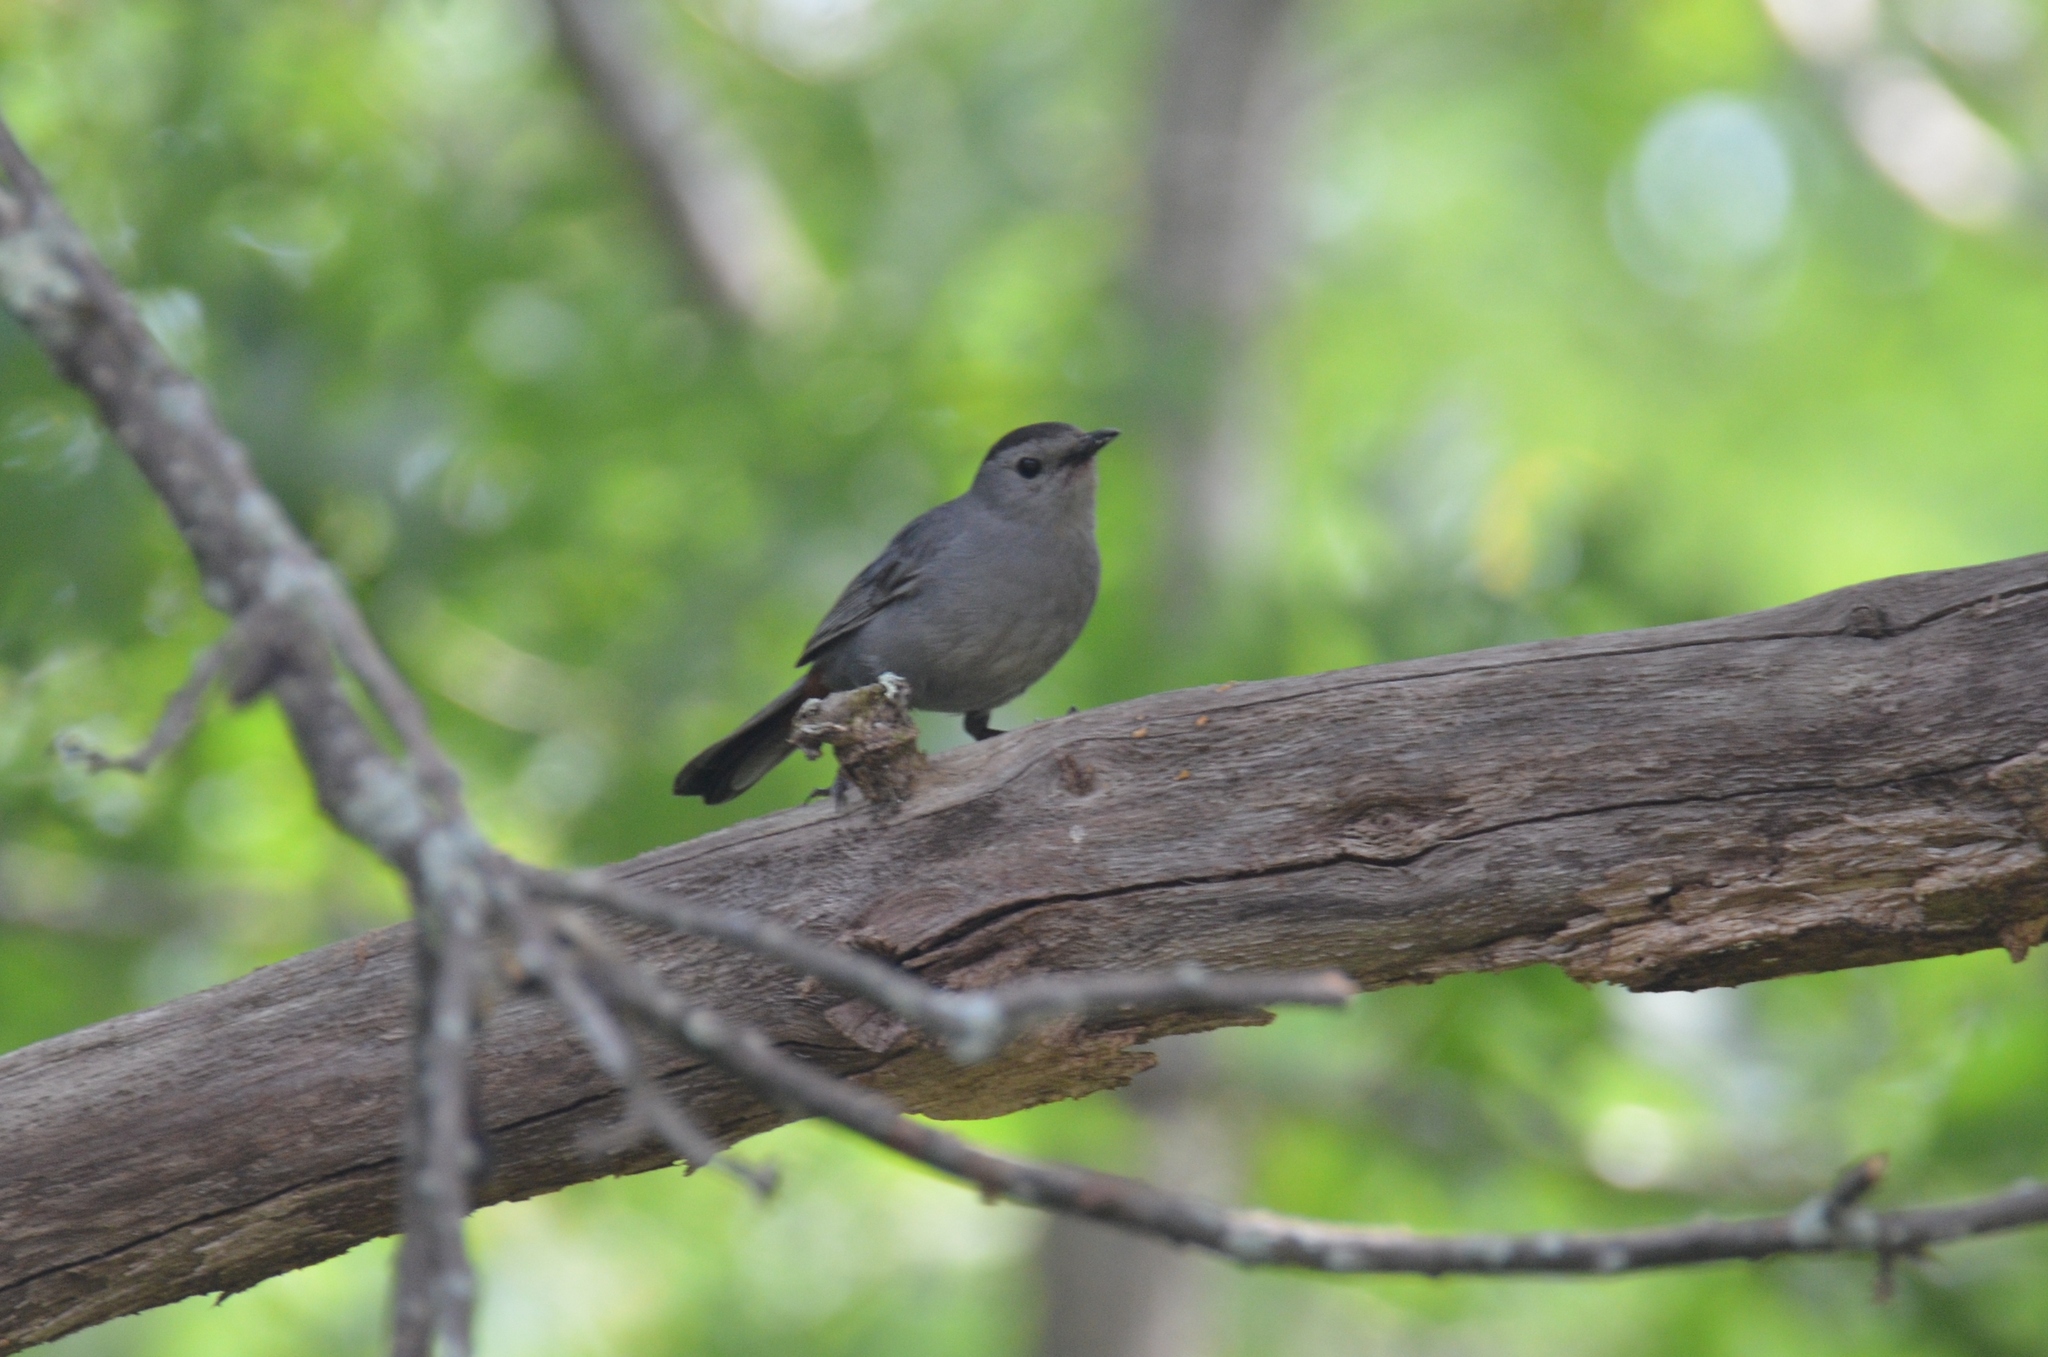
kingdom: Animalia
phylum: Chordata
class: Aves
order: Passeriformes
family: Mimidae
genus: Dumetella
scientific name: Dumetella carolinensis
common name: Gray catbird
